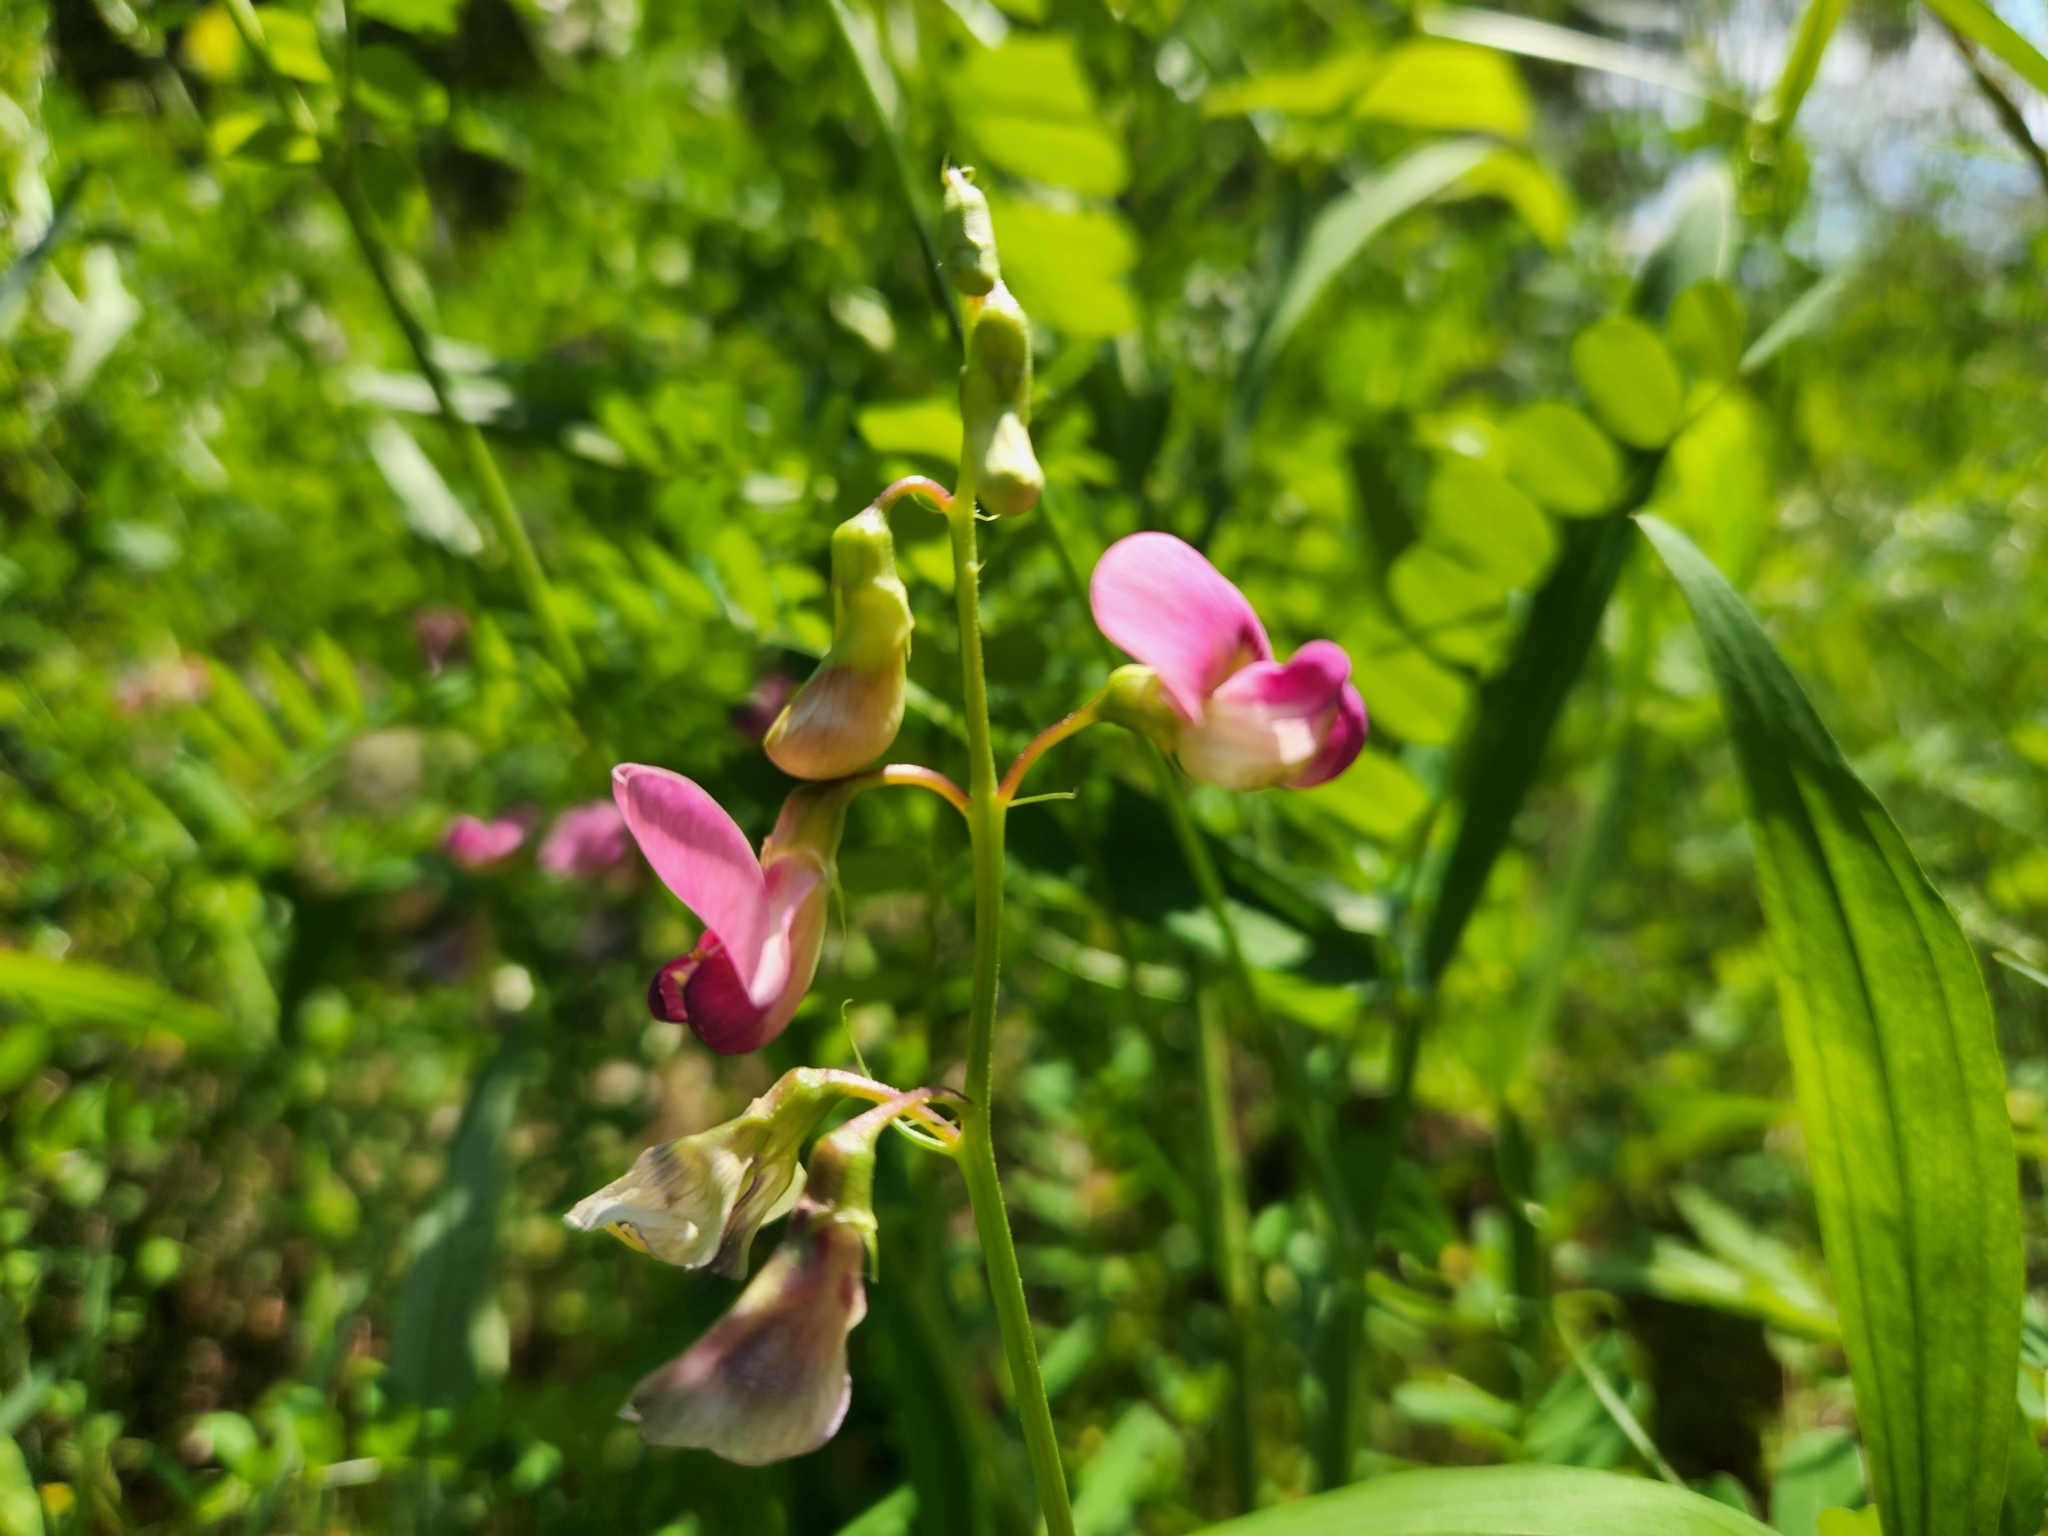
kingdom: Plantae
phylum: Tracheophyta
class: Magnoliopsida
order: Fabales
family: Fabaceae
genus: Lathyrus
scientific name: Lathyrus sylvestris
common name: Flat pea
